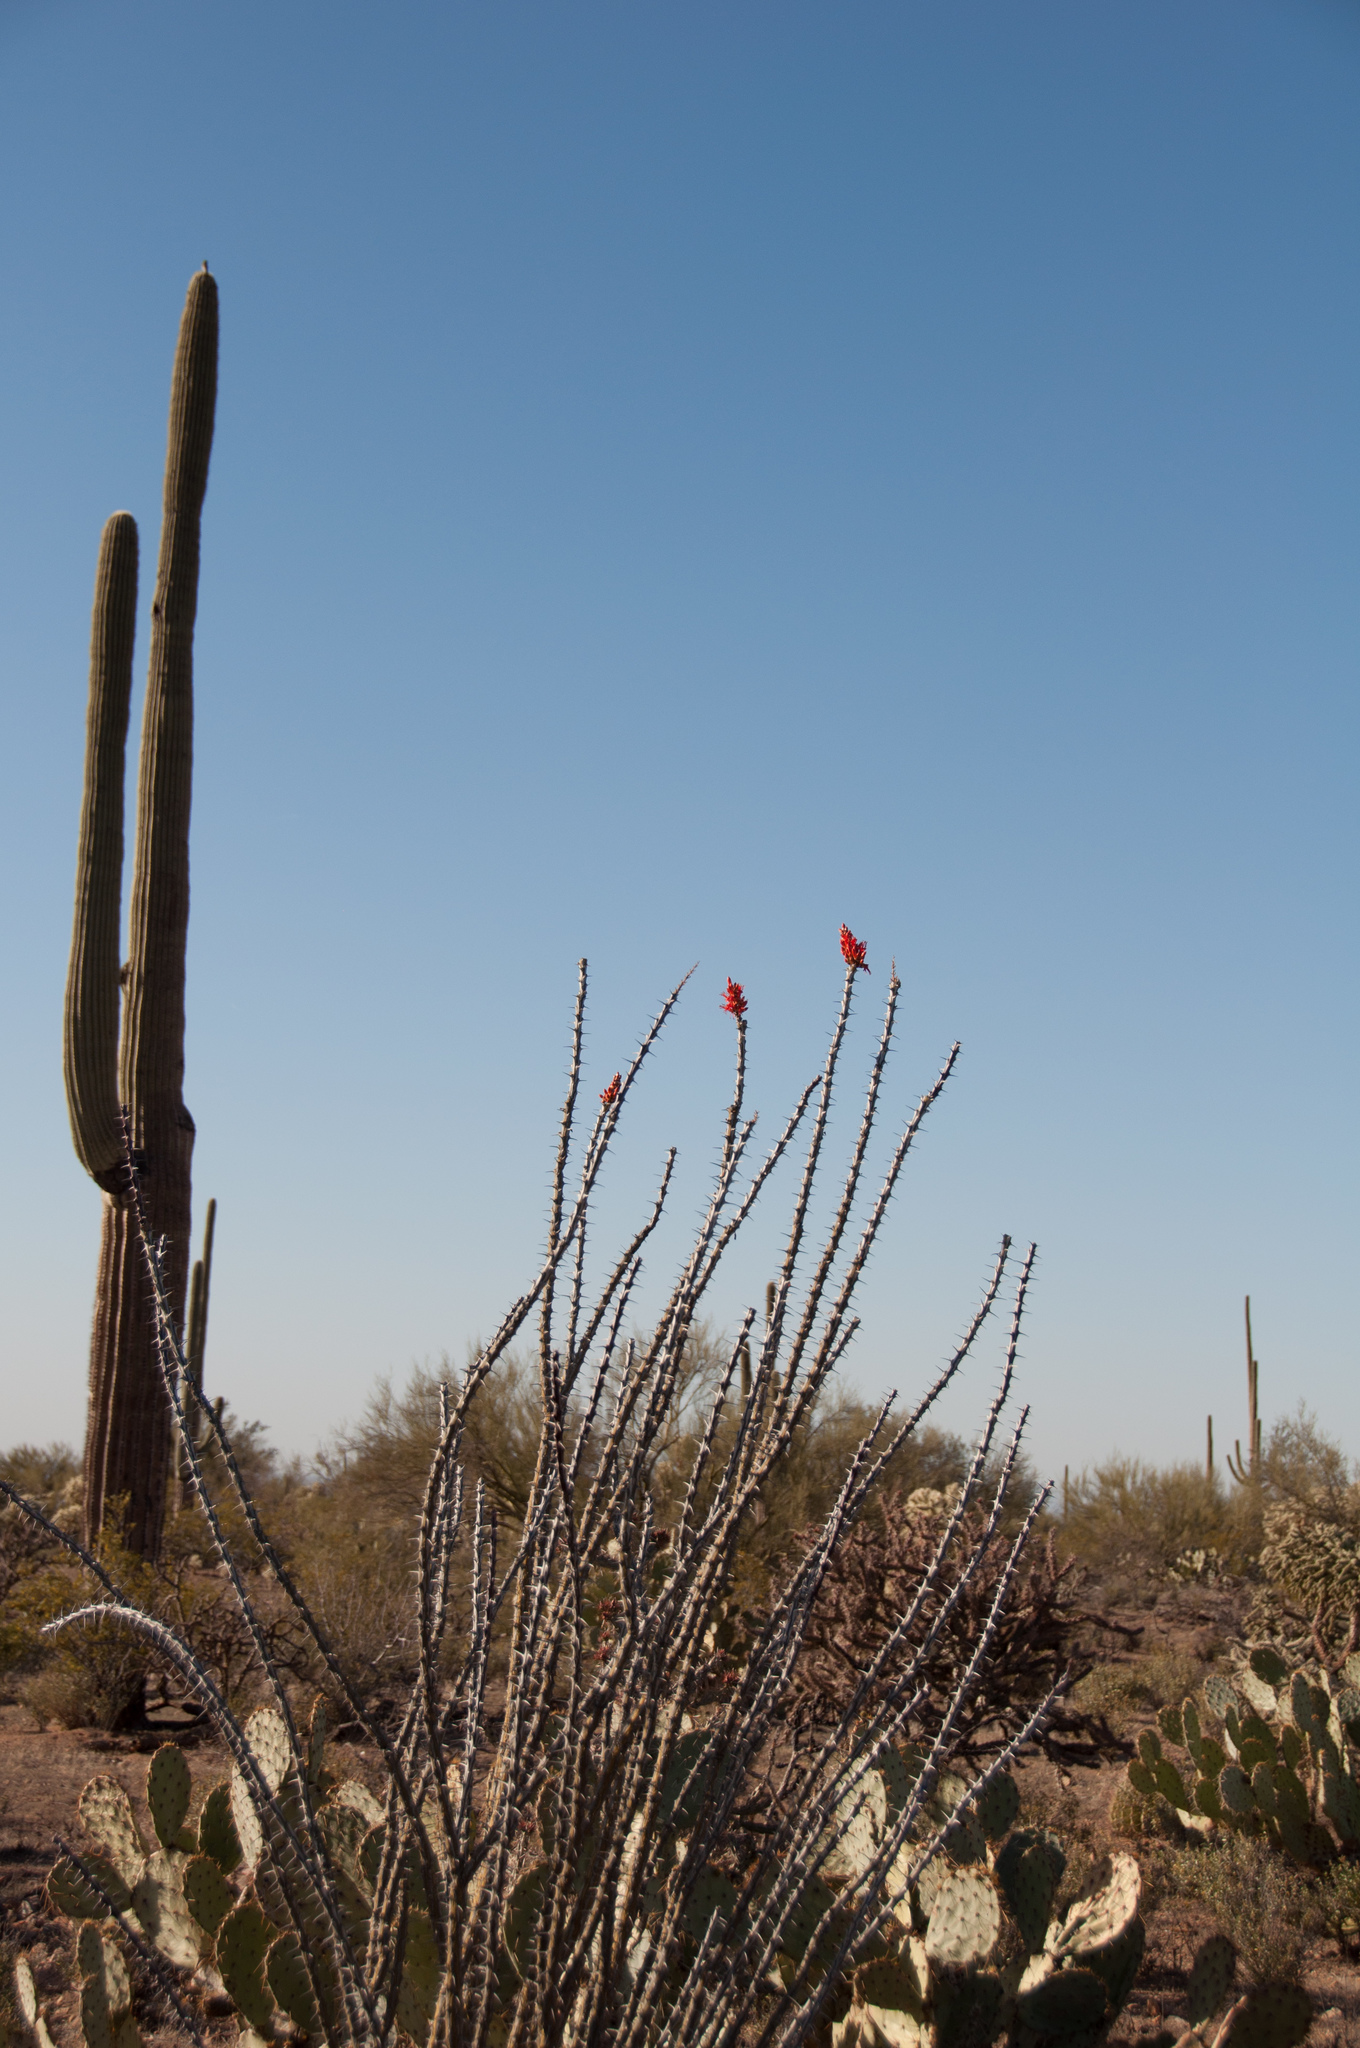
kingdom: Plantae
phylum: Tracheophyta
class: Magnoliopsida
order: Ericales
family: Fouquieriaceae
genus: Fouquieria
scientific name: Fouquieria splendens
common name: Vine-cactus
